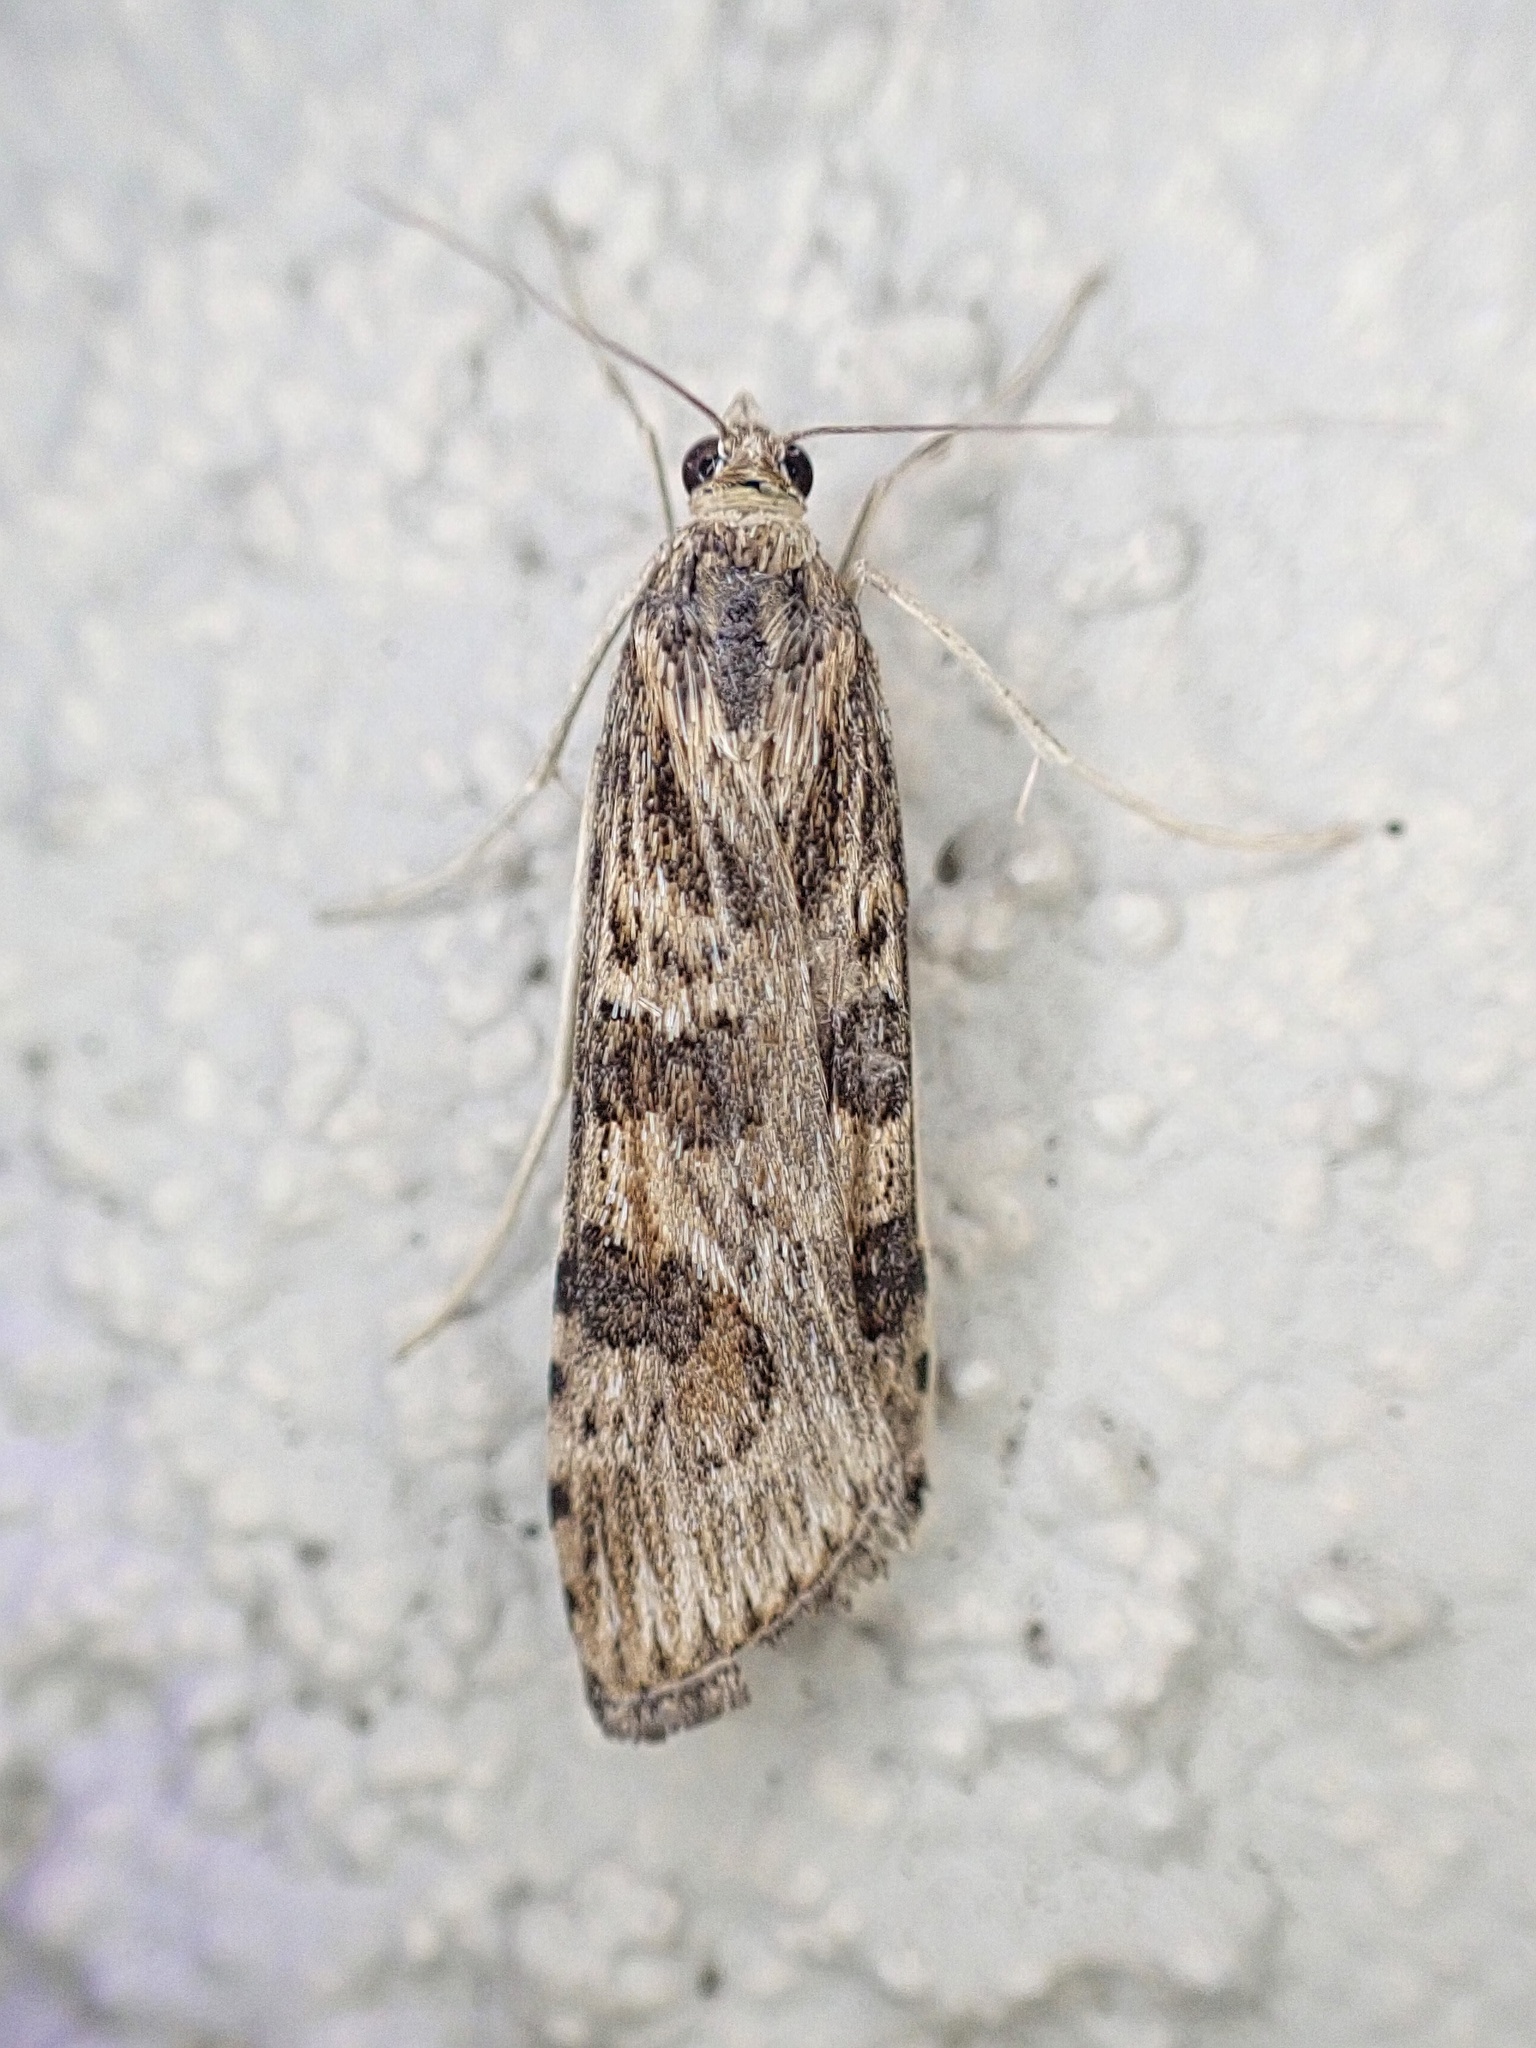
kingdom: Animalia
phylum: Arthropoda
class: Insecta
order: Lepidoptera
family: Crambidae
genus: Nomophila
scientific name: Nomophila nearctica
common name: American rush veneer
